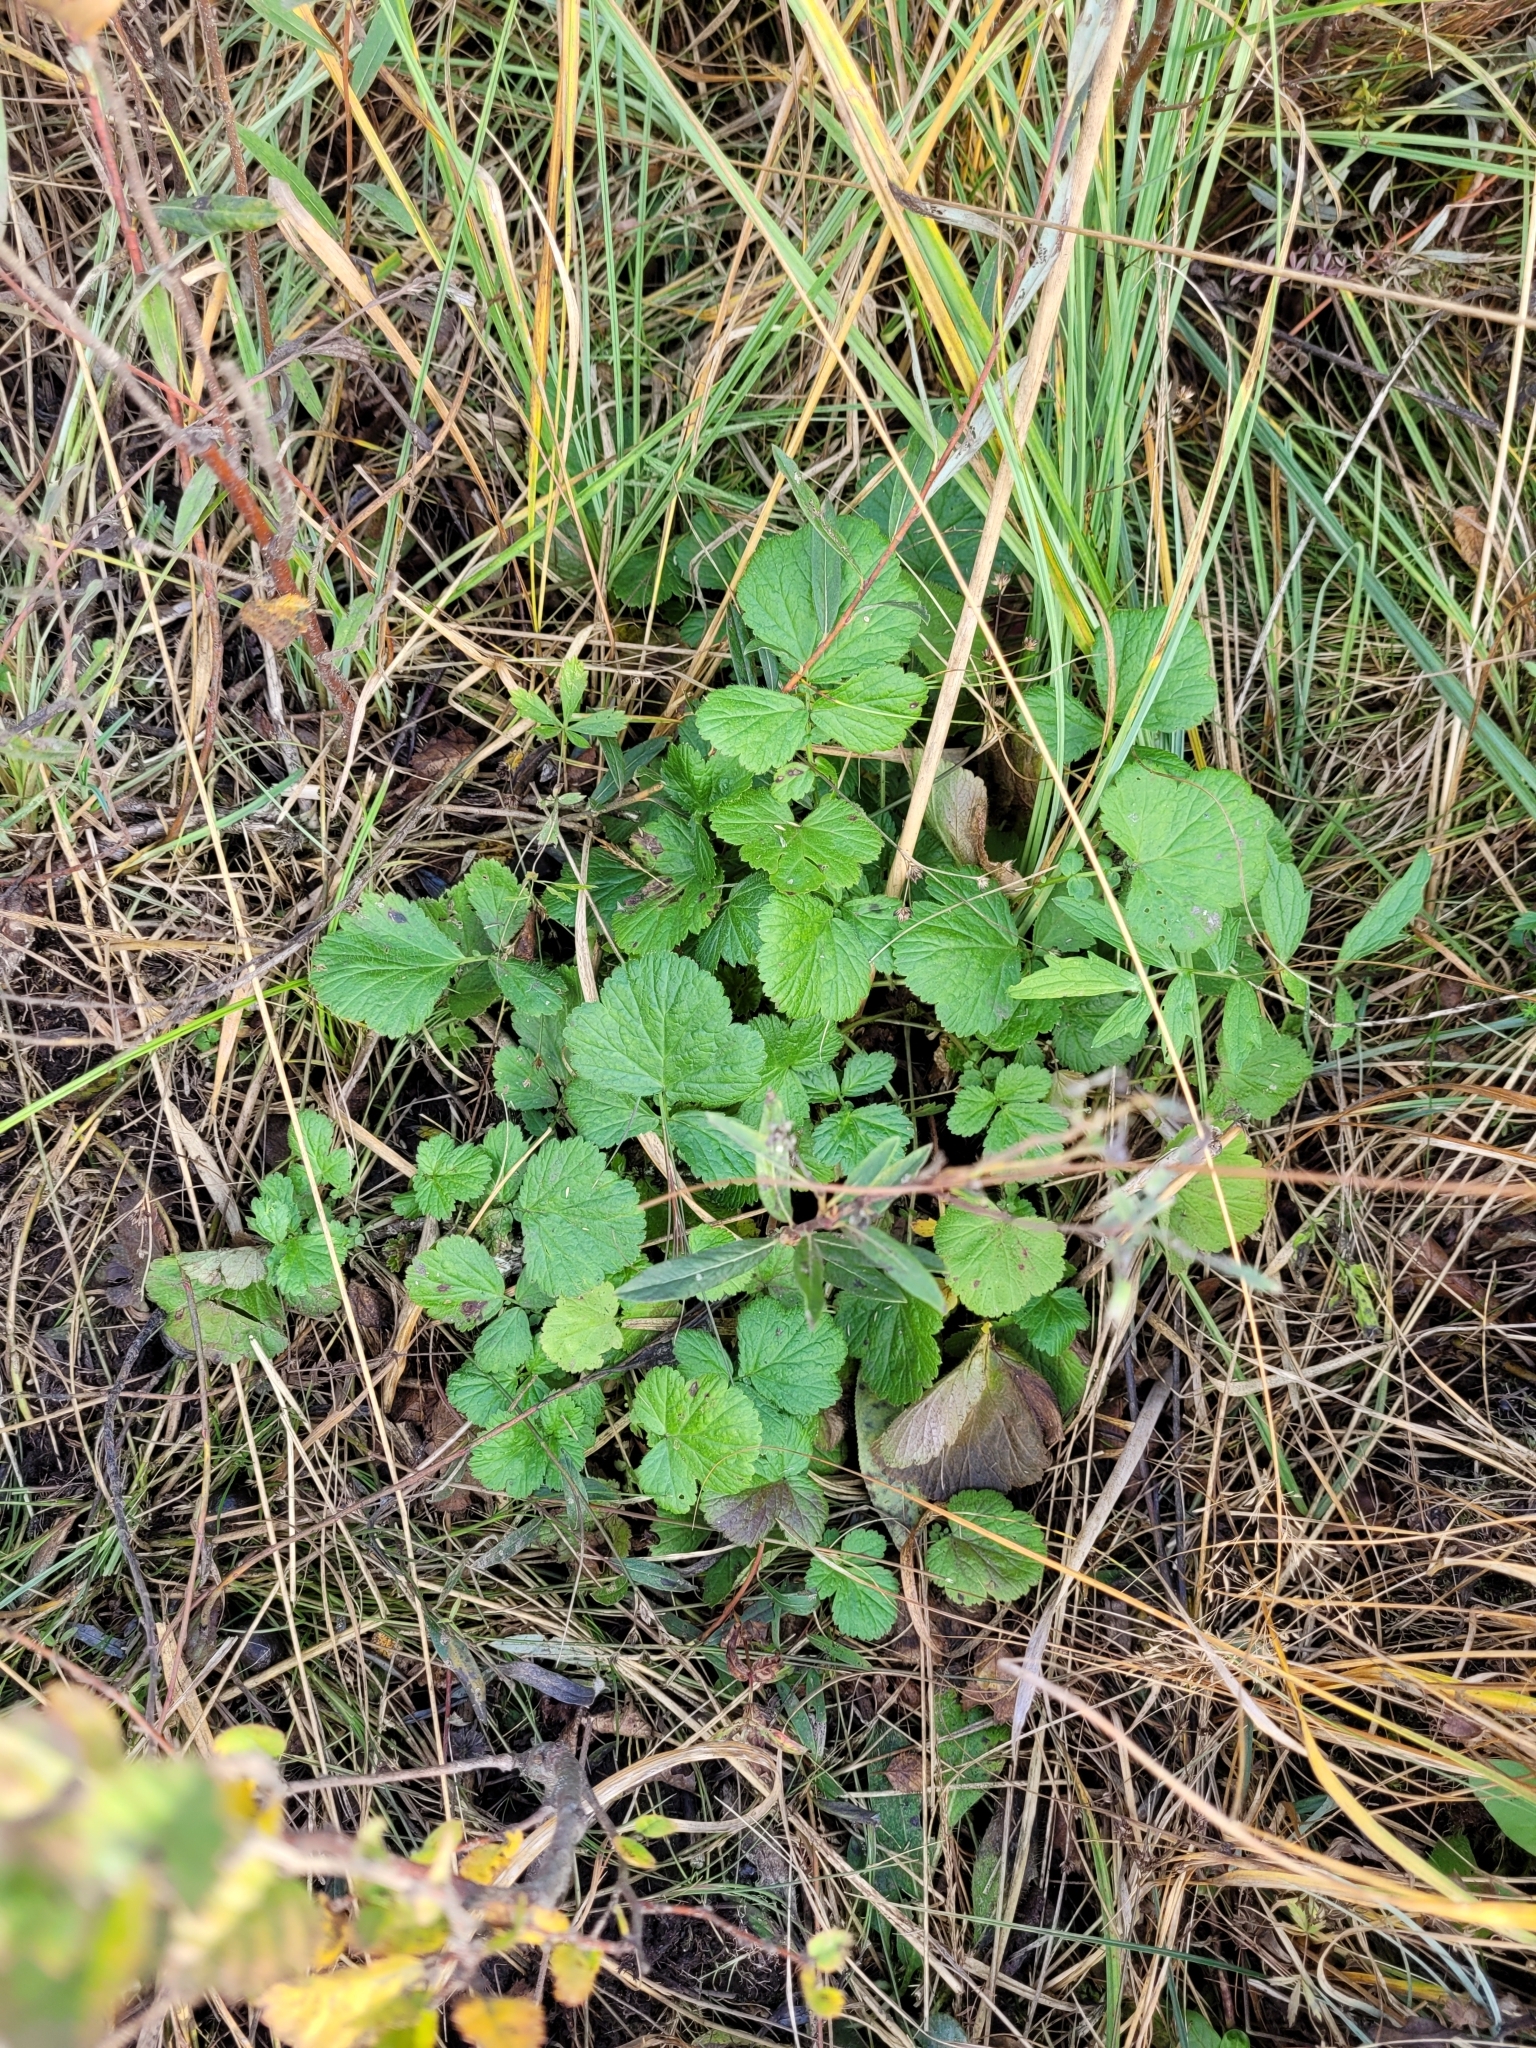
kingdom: Plantae
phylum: Tracheophyta
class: Magnoliopsida
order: Rosales
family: Rosaceae
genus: Geum
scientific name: Geum rivale
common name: Water avens
